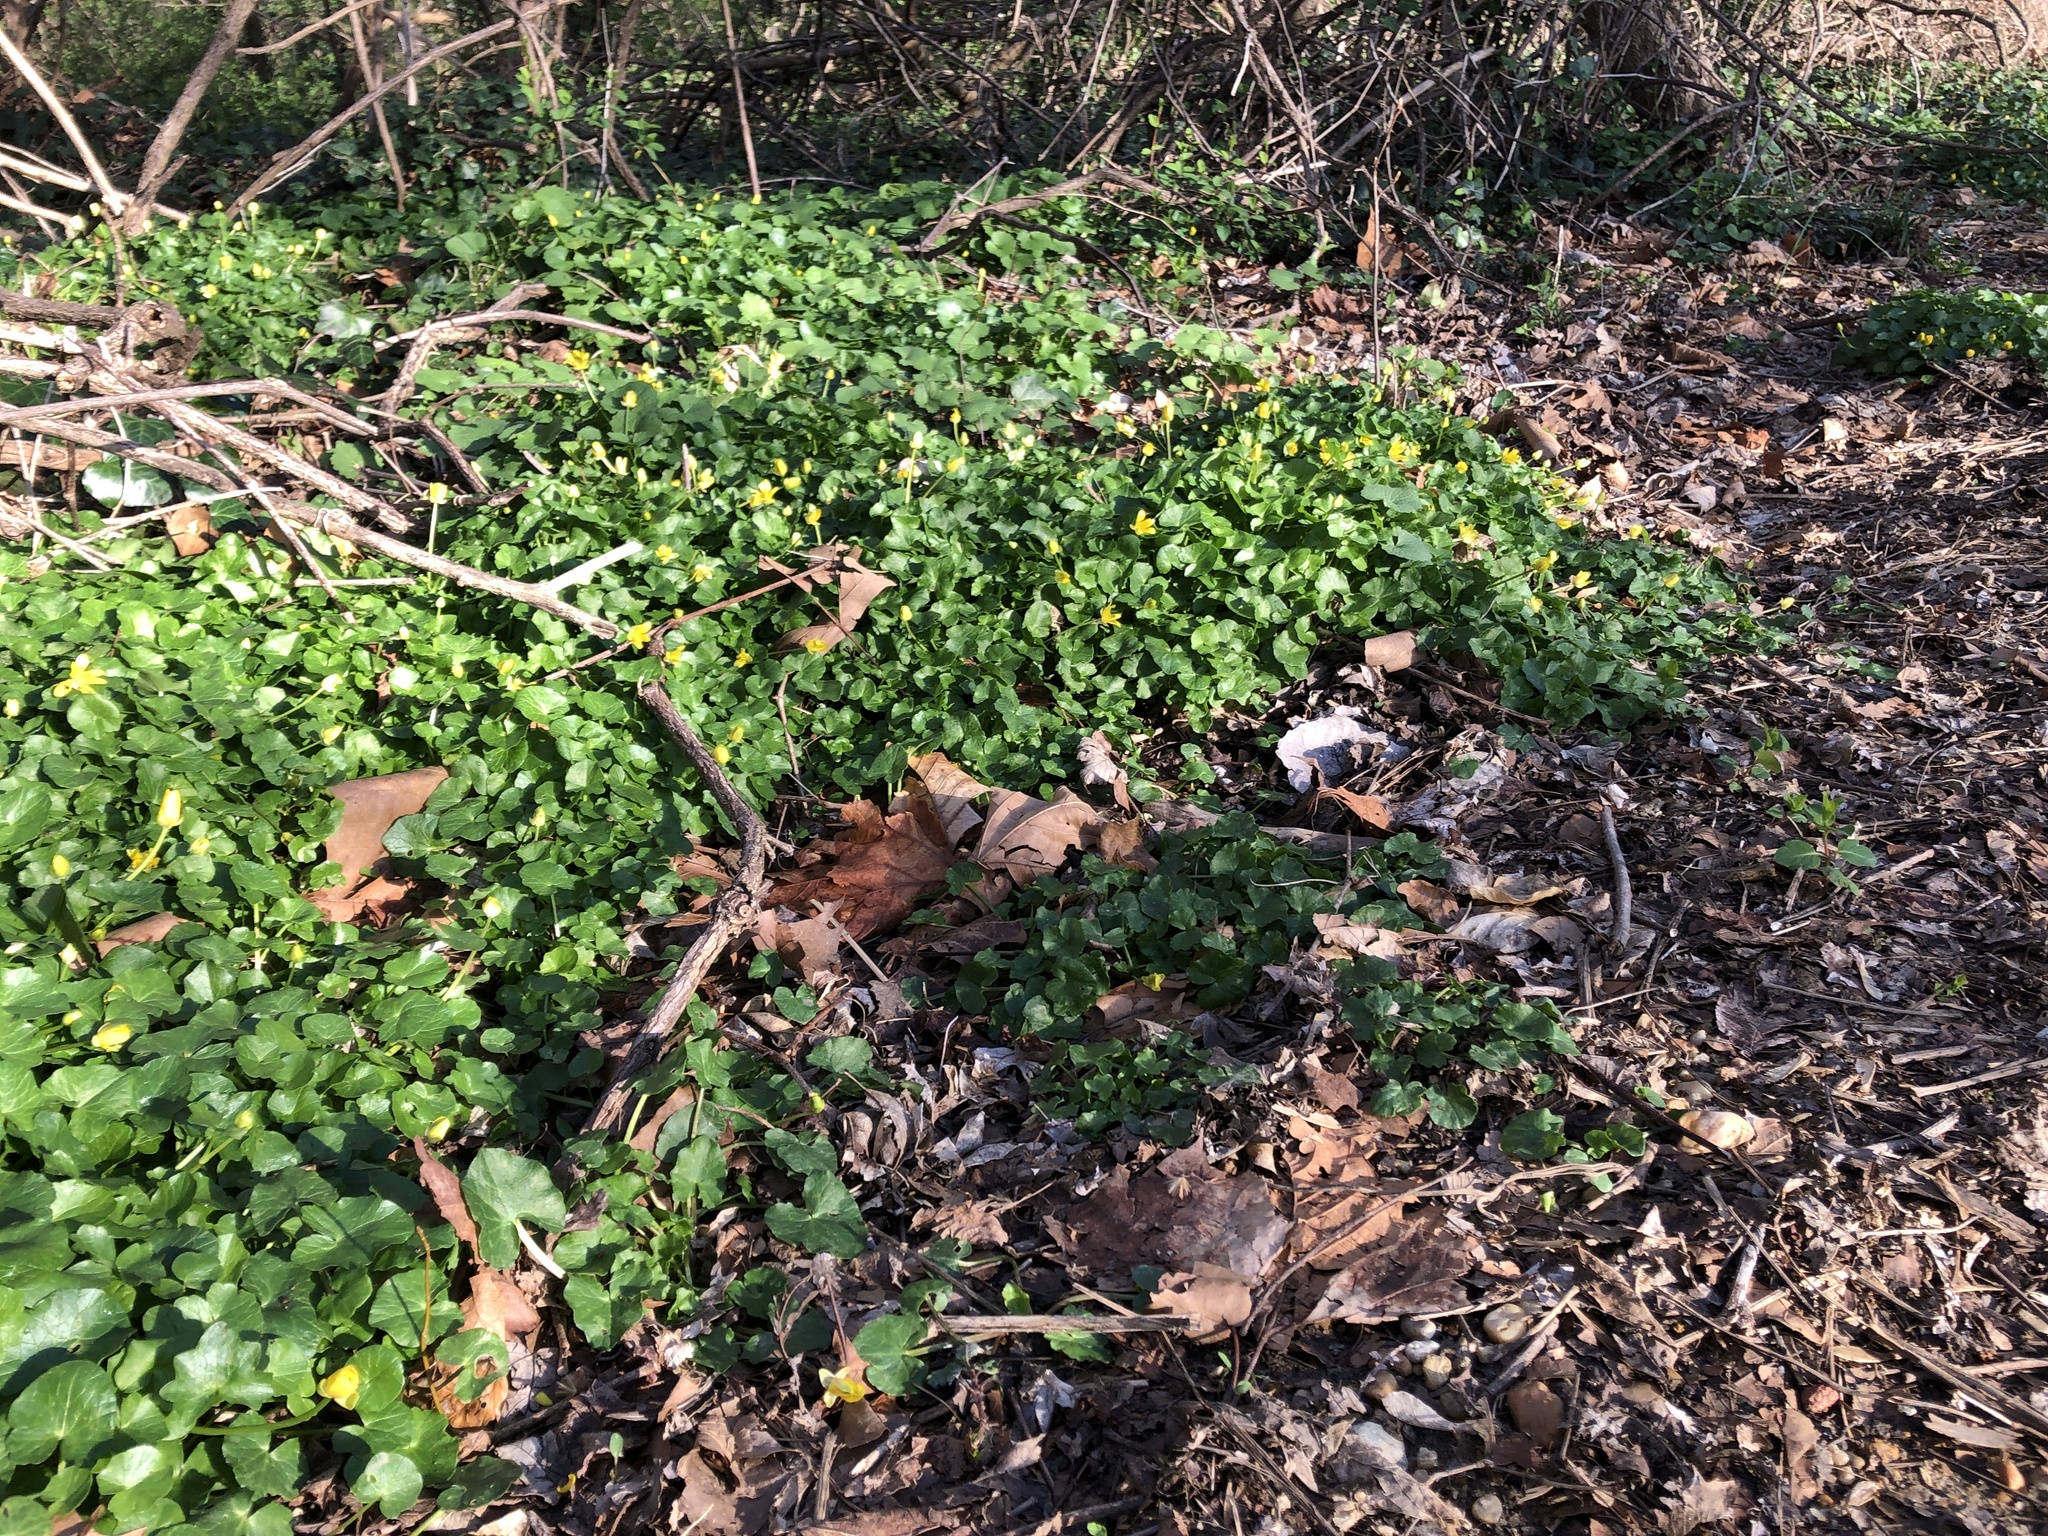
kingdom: Plantae
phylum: Tracheophyta
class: Magnoliopsida
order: Ranunculales
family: Ranunculaceae
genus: Ficaria
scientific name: Ficaria verna
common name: Lesser celandine
